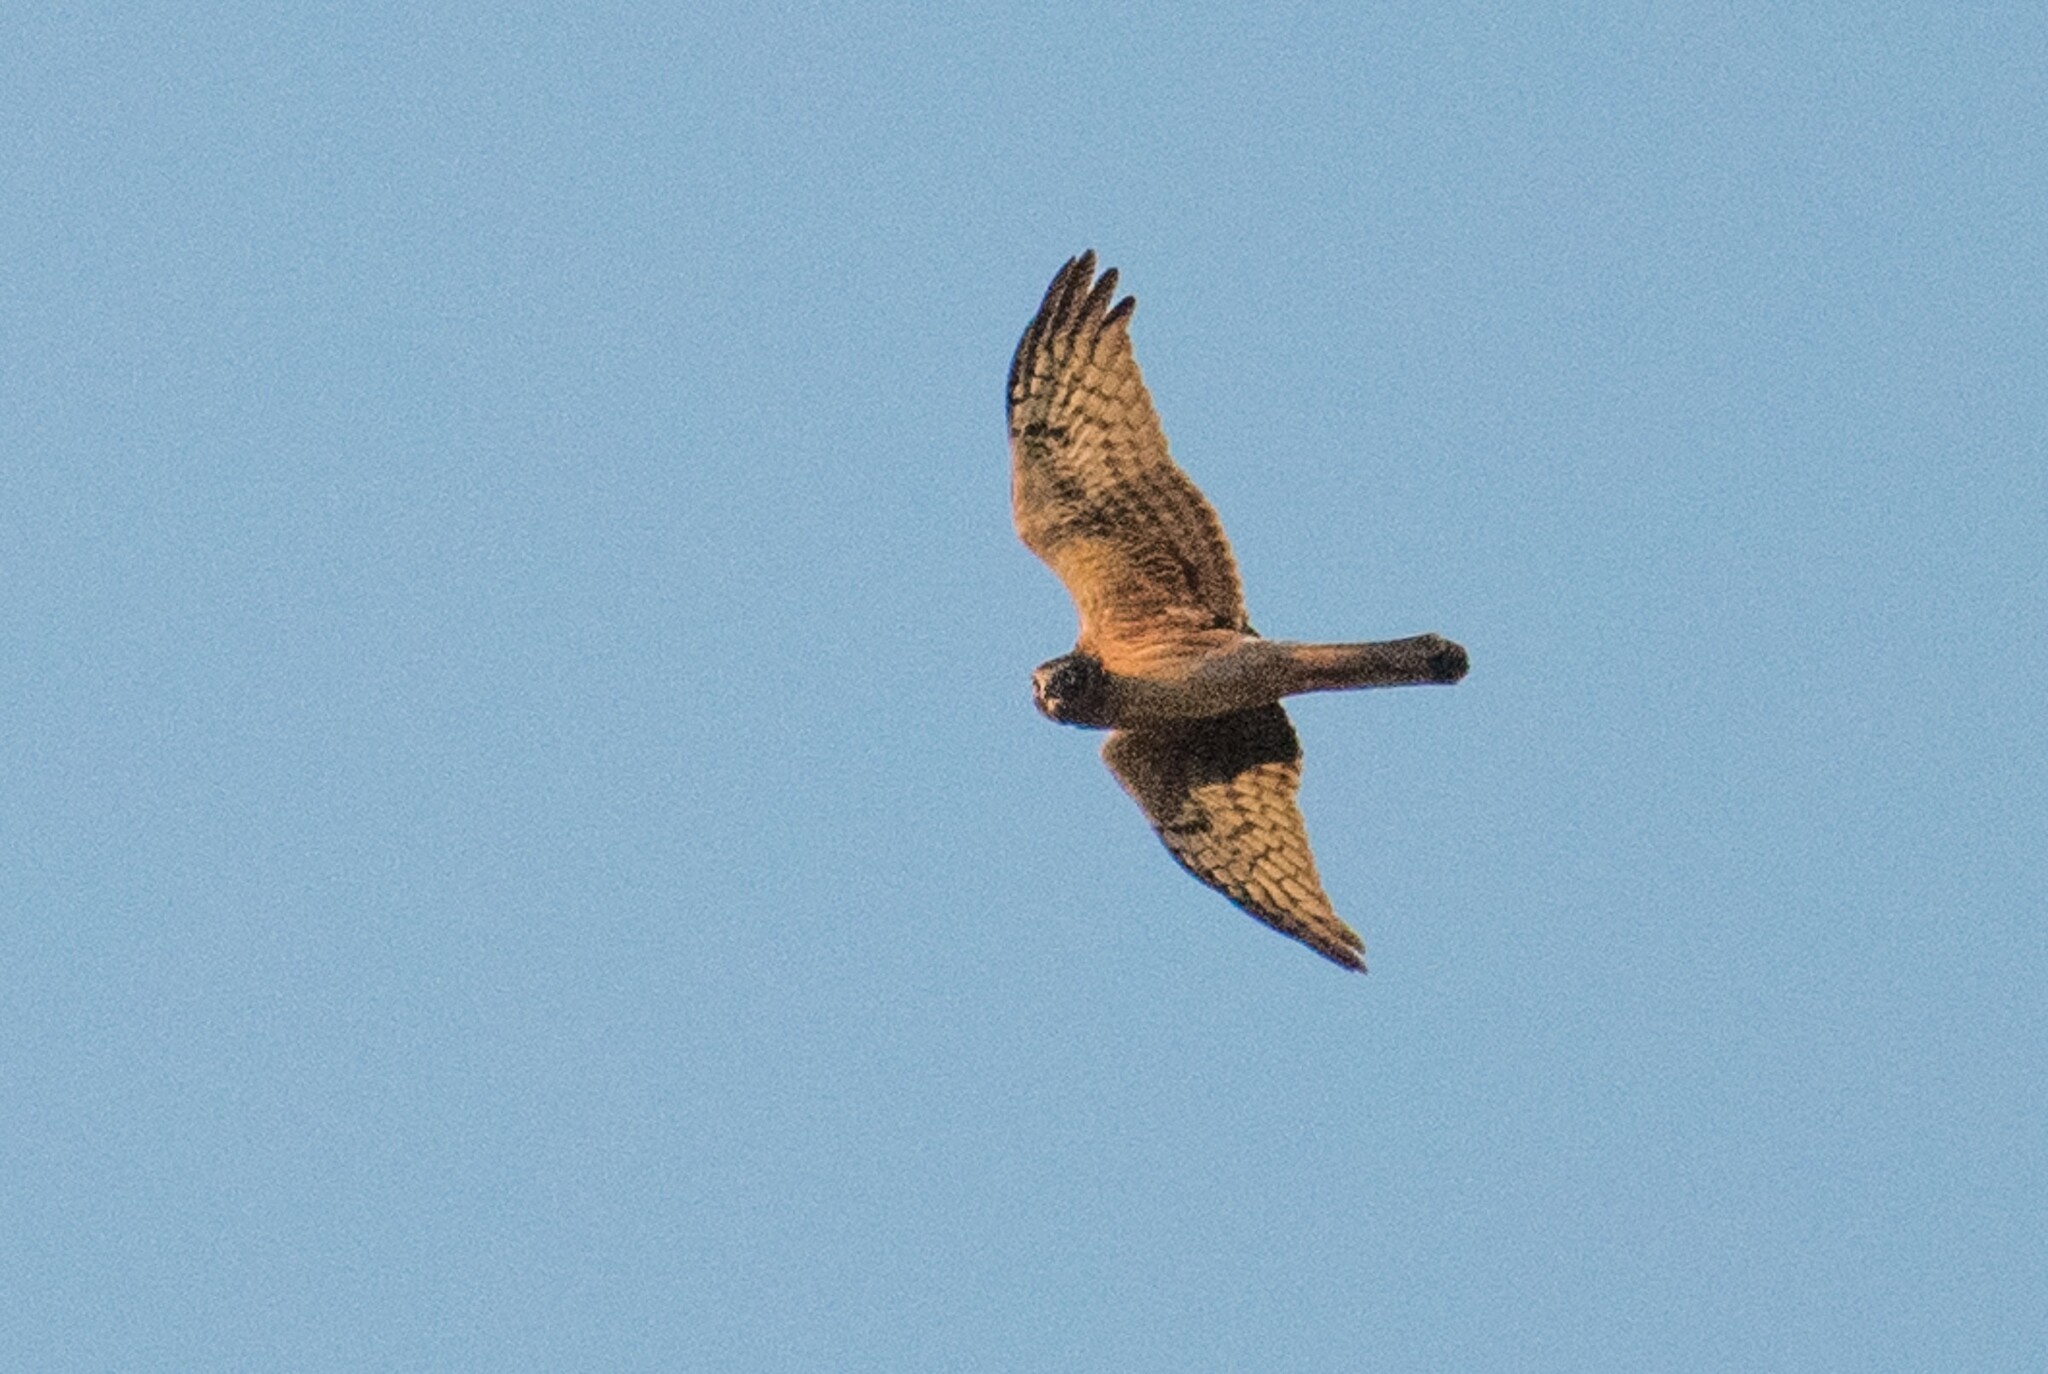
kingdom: Animalia
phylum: Chordata
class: Aves
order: Accipitriformes
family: Accipitridae
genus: Circus
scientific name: Circus cyaneus
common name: Hen harrier
